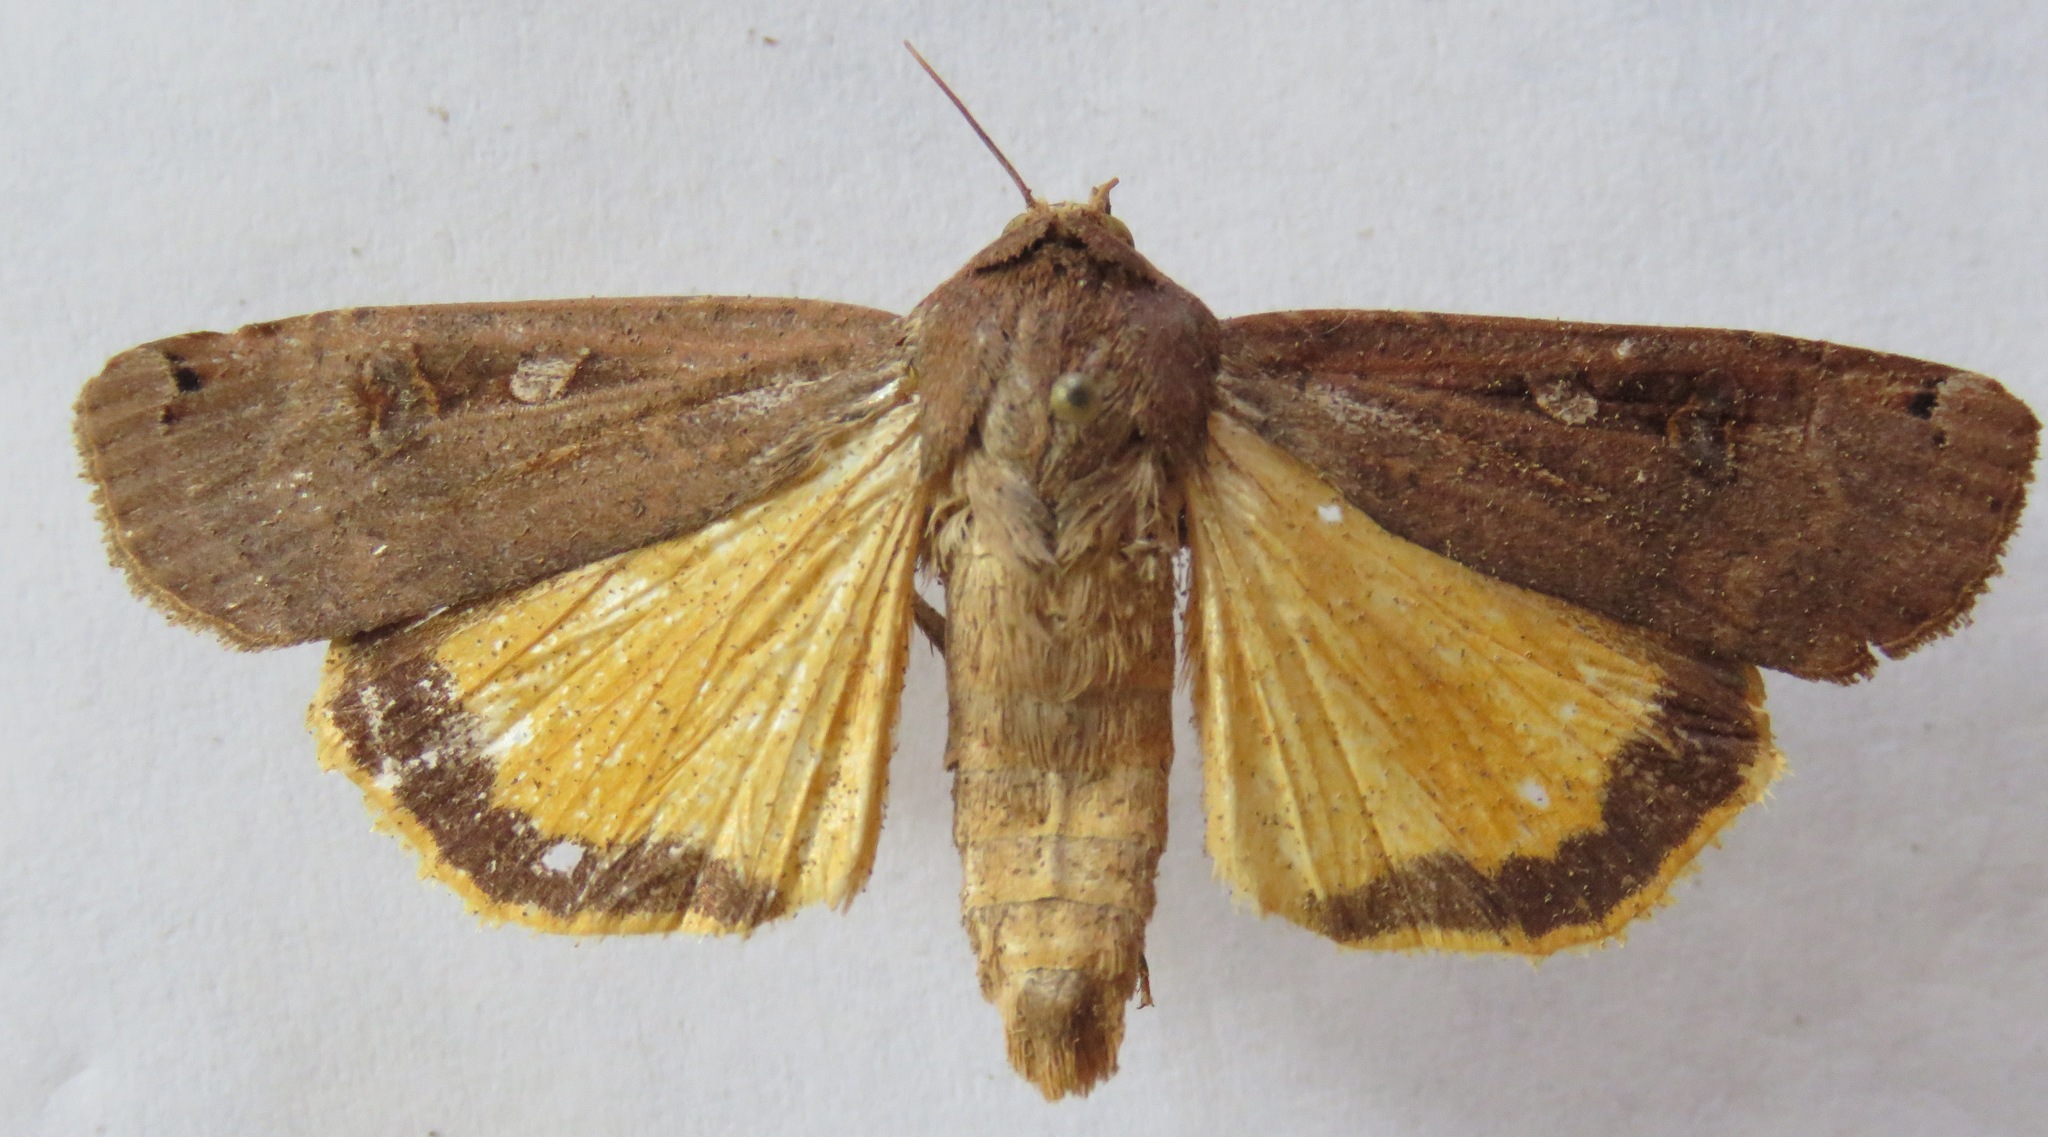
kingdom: Animalia
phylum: Arthropoda
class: Insecta
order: Lepidoptera
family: Noctuidae
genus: Noctua
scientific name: Noctua pronuba
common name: Large yellow underwing
